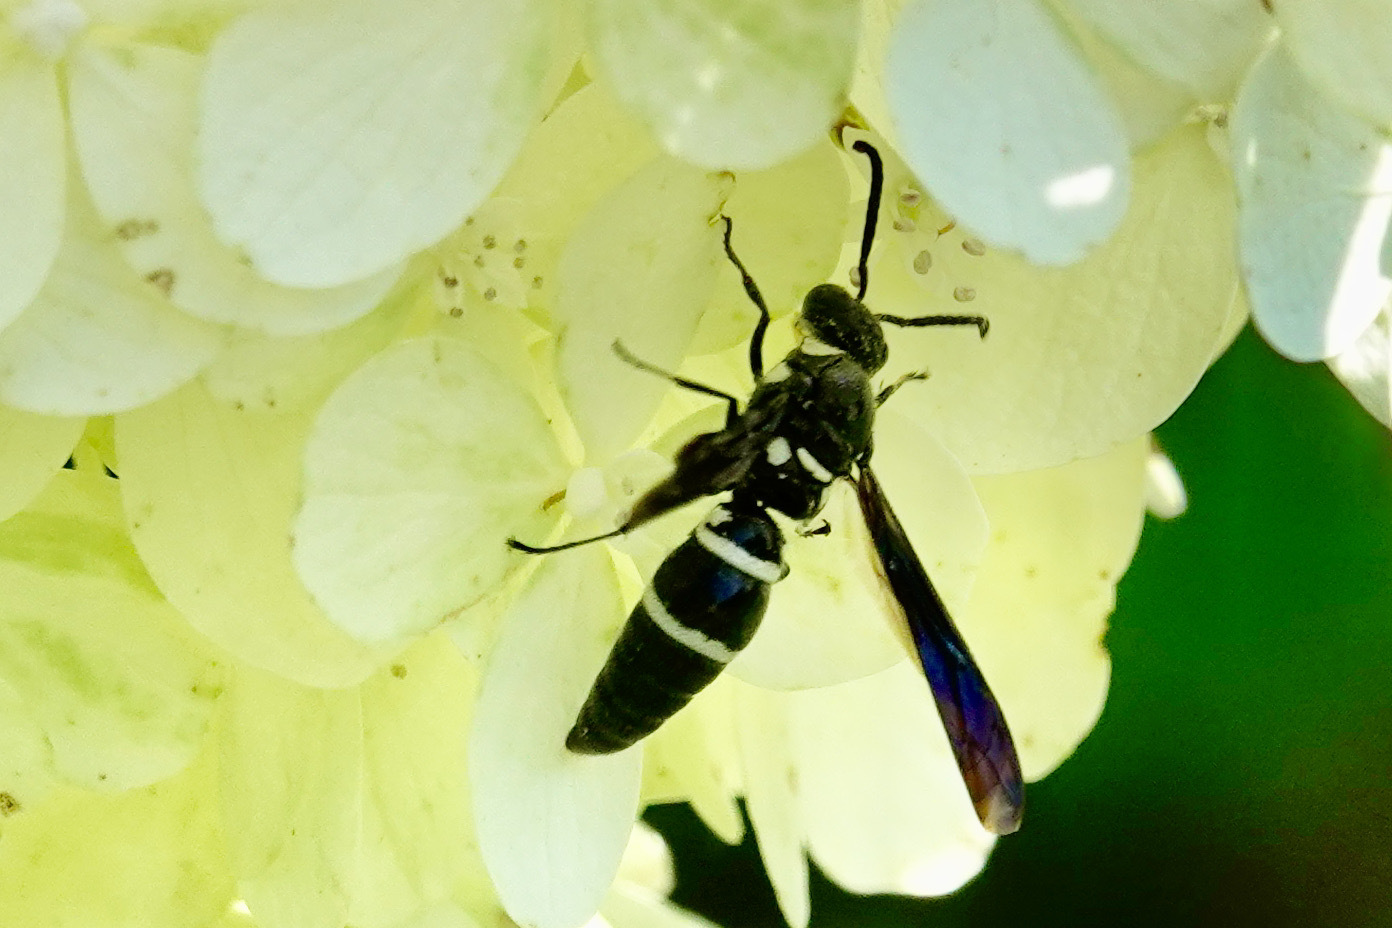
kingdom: Animalia
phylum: Arthropoda
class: Insecta
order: Hymenoptera
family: Eumenidae
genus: Pseudodynerus
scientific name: Pseudodynerus quadrisectus
